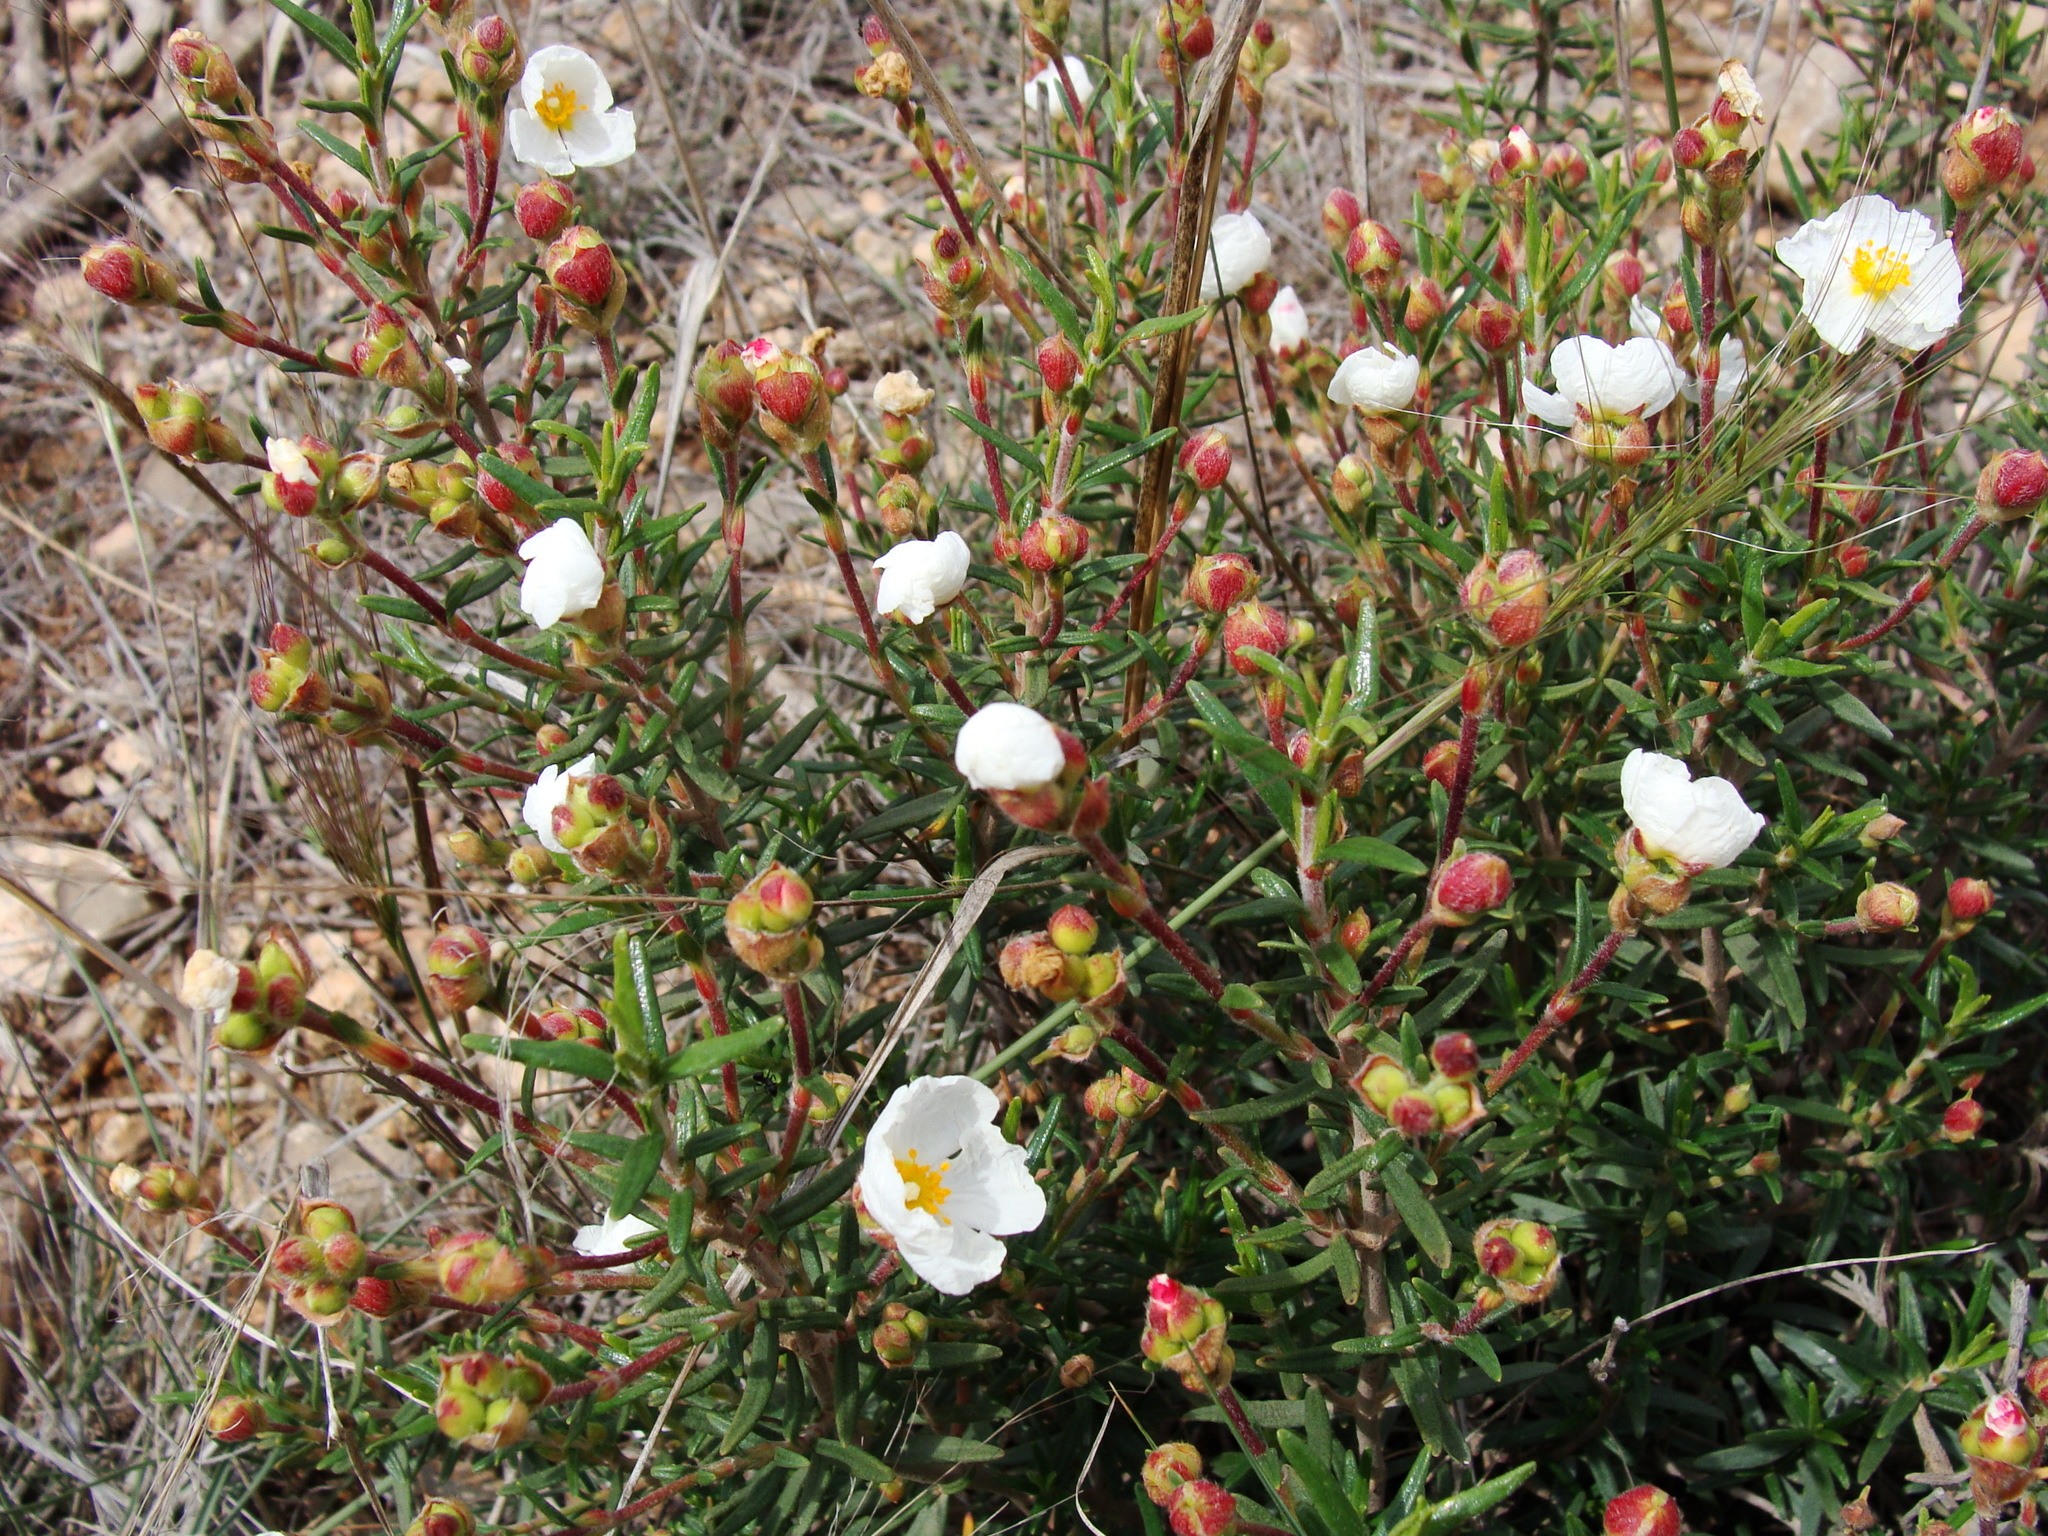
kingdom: Plantae
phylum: Tracheophyta
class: Magnoliopsida
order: Malvales
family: Cistaceae
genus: Cistus
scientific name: Cistus clusii
